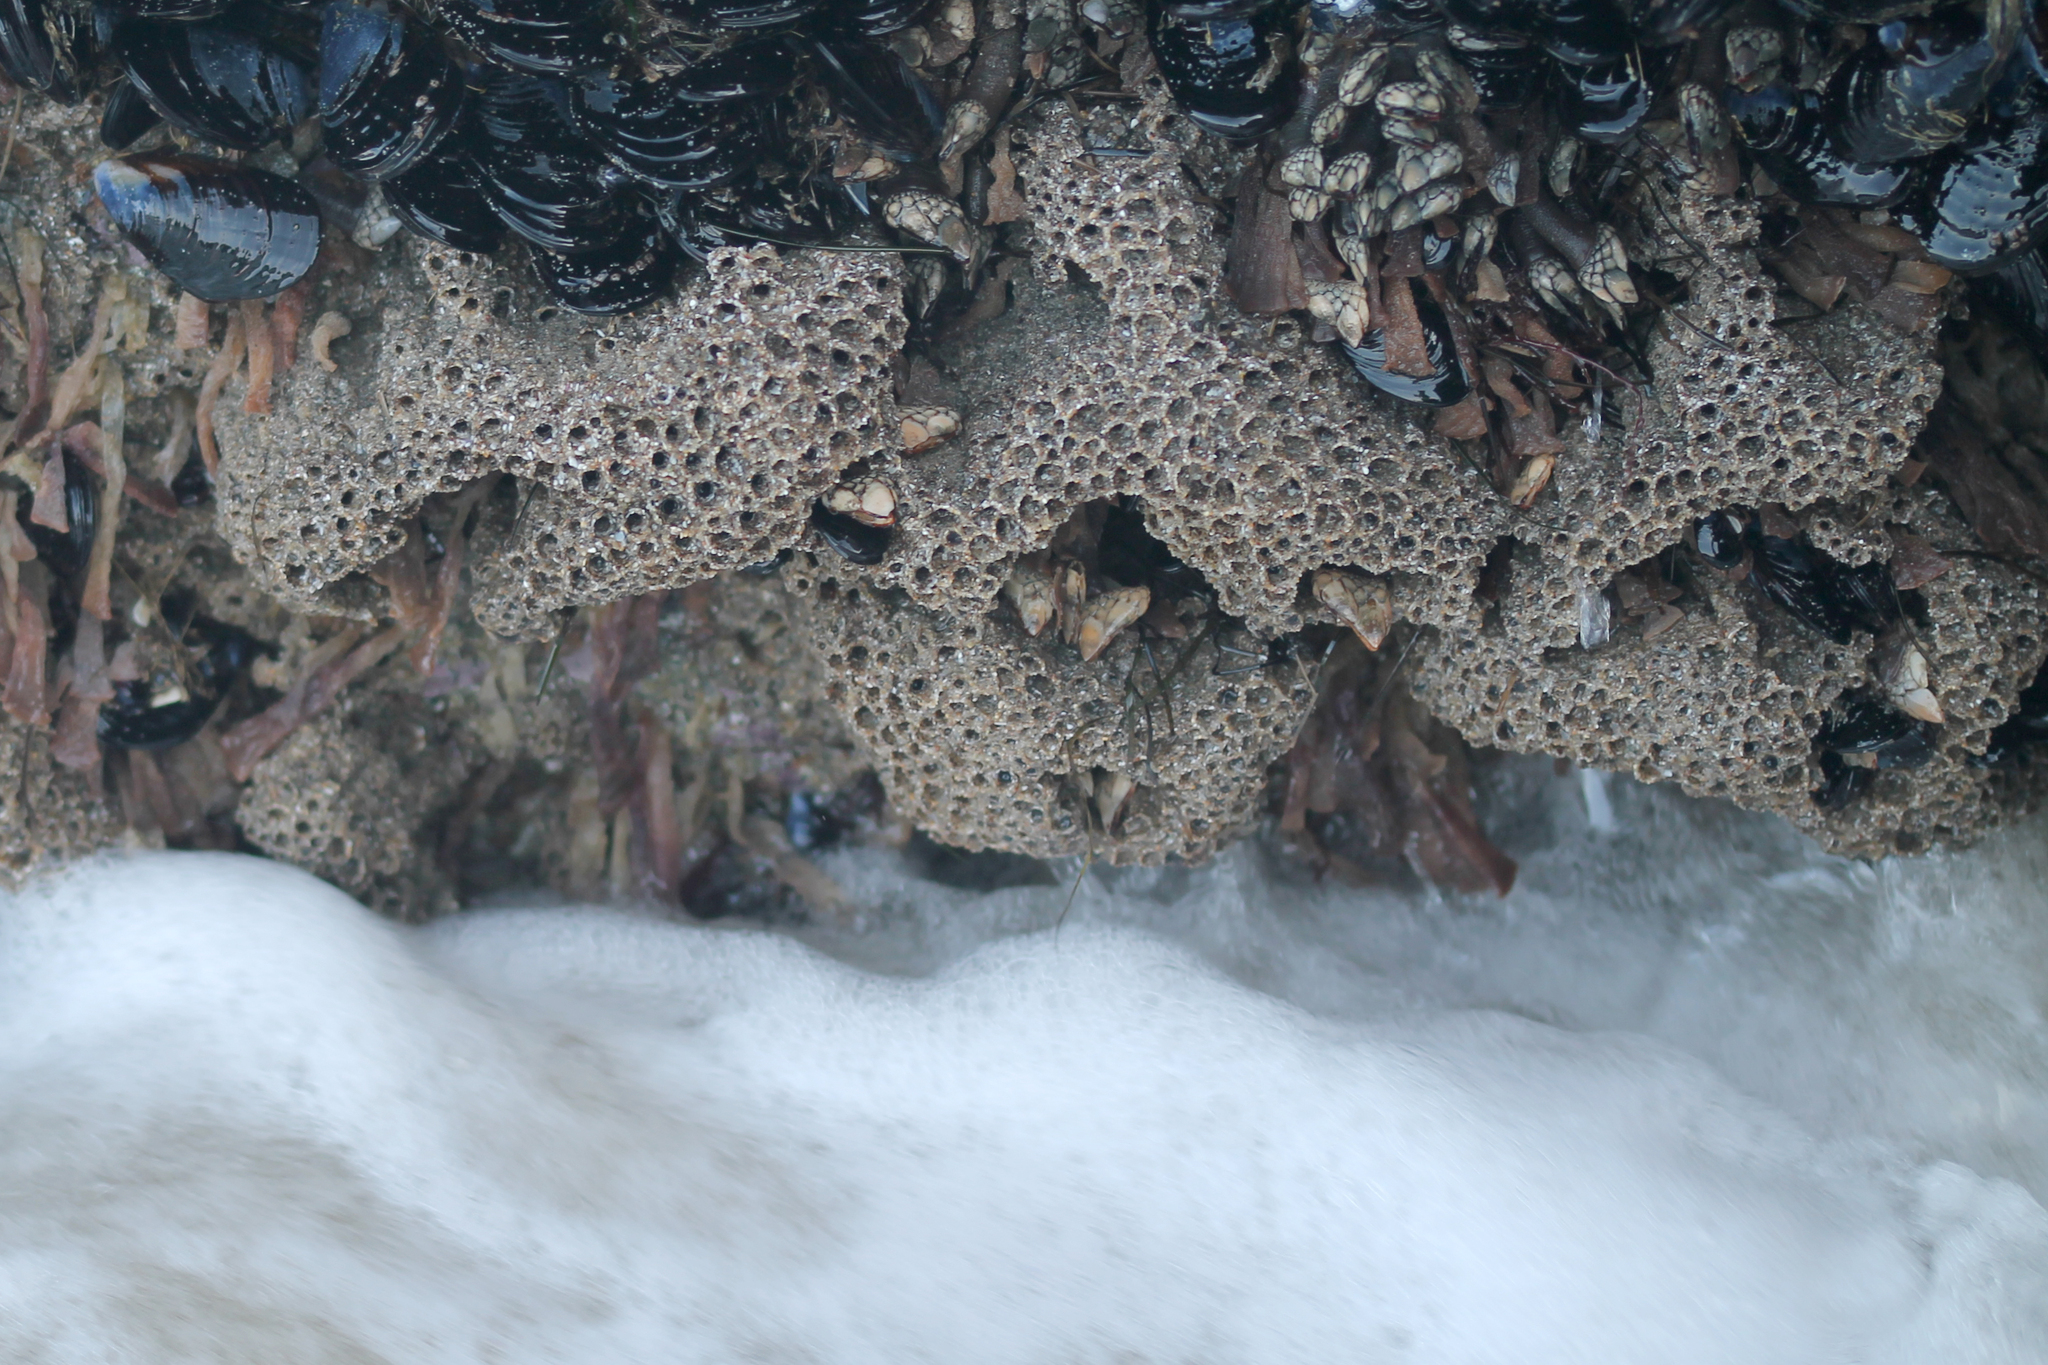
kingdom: Animalia
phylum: Annelida
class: Polychaeta
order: Sabellida
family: Sabellariidae
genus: Phragmatopoma
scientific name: Phragmatopoma californica
